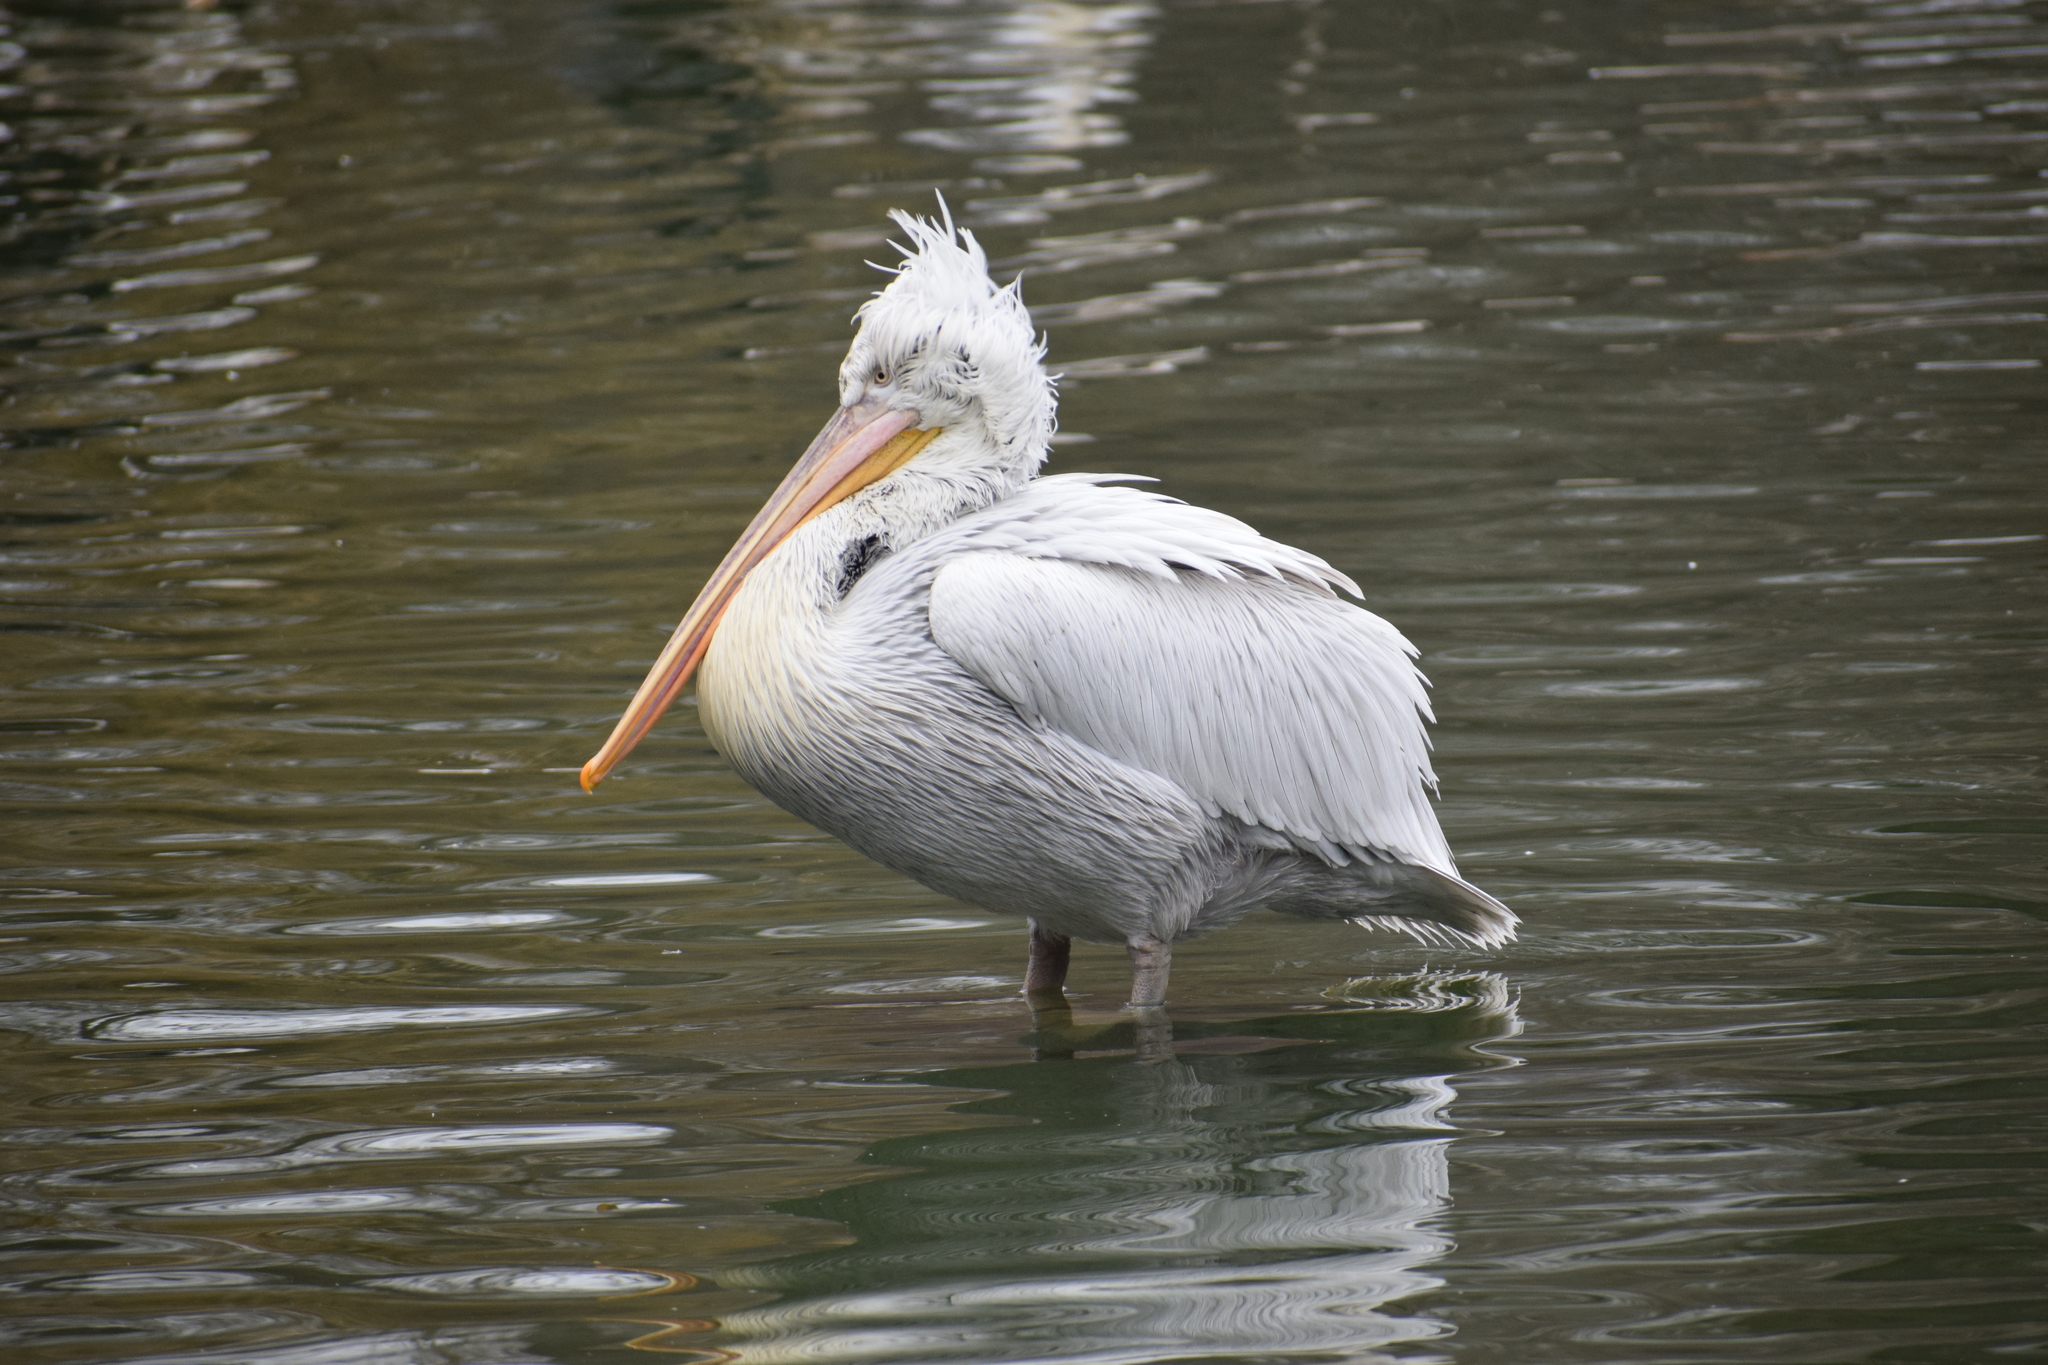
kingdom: Animalia
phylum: Chordata
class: Aves
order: Pelecaniformes
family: Pelecanidae
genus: Pelecanus
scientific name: Pelecanus crispus
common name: Dalmatian pelican
